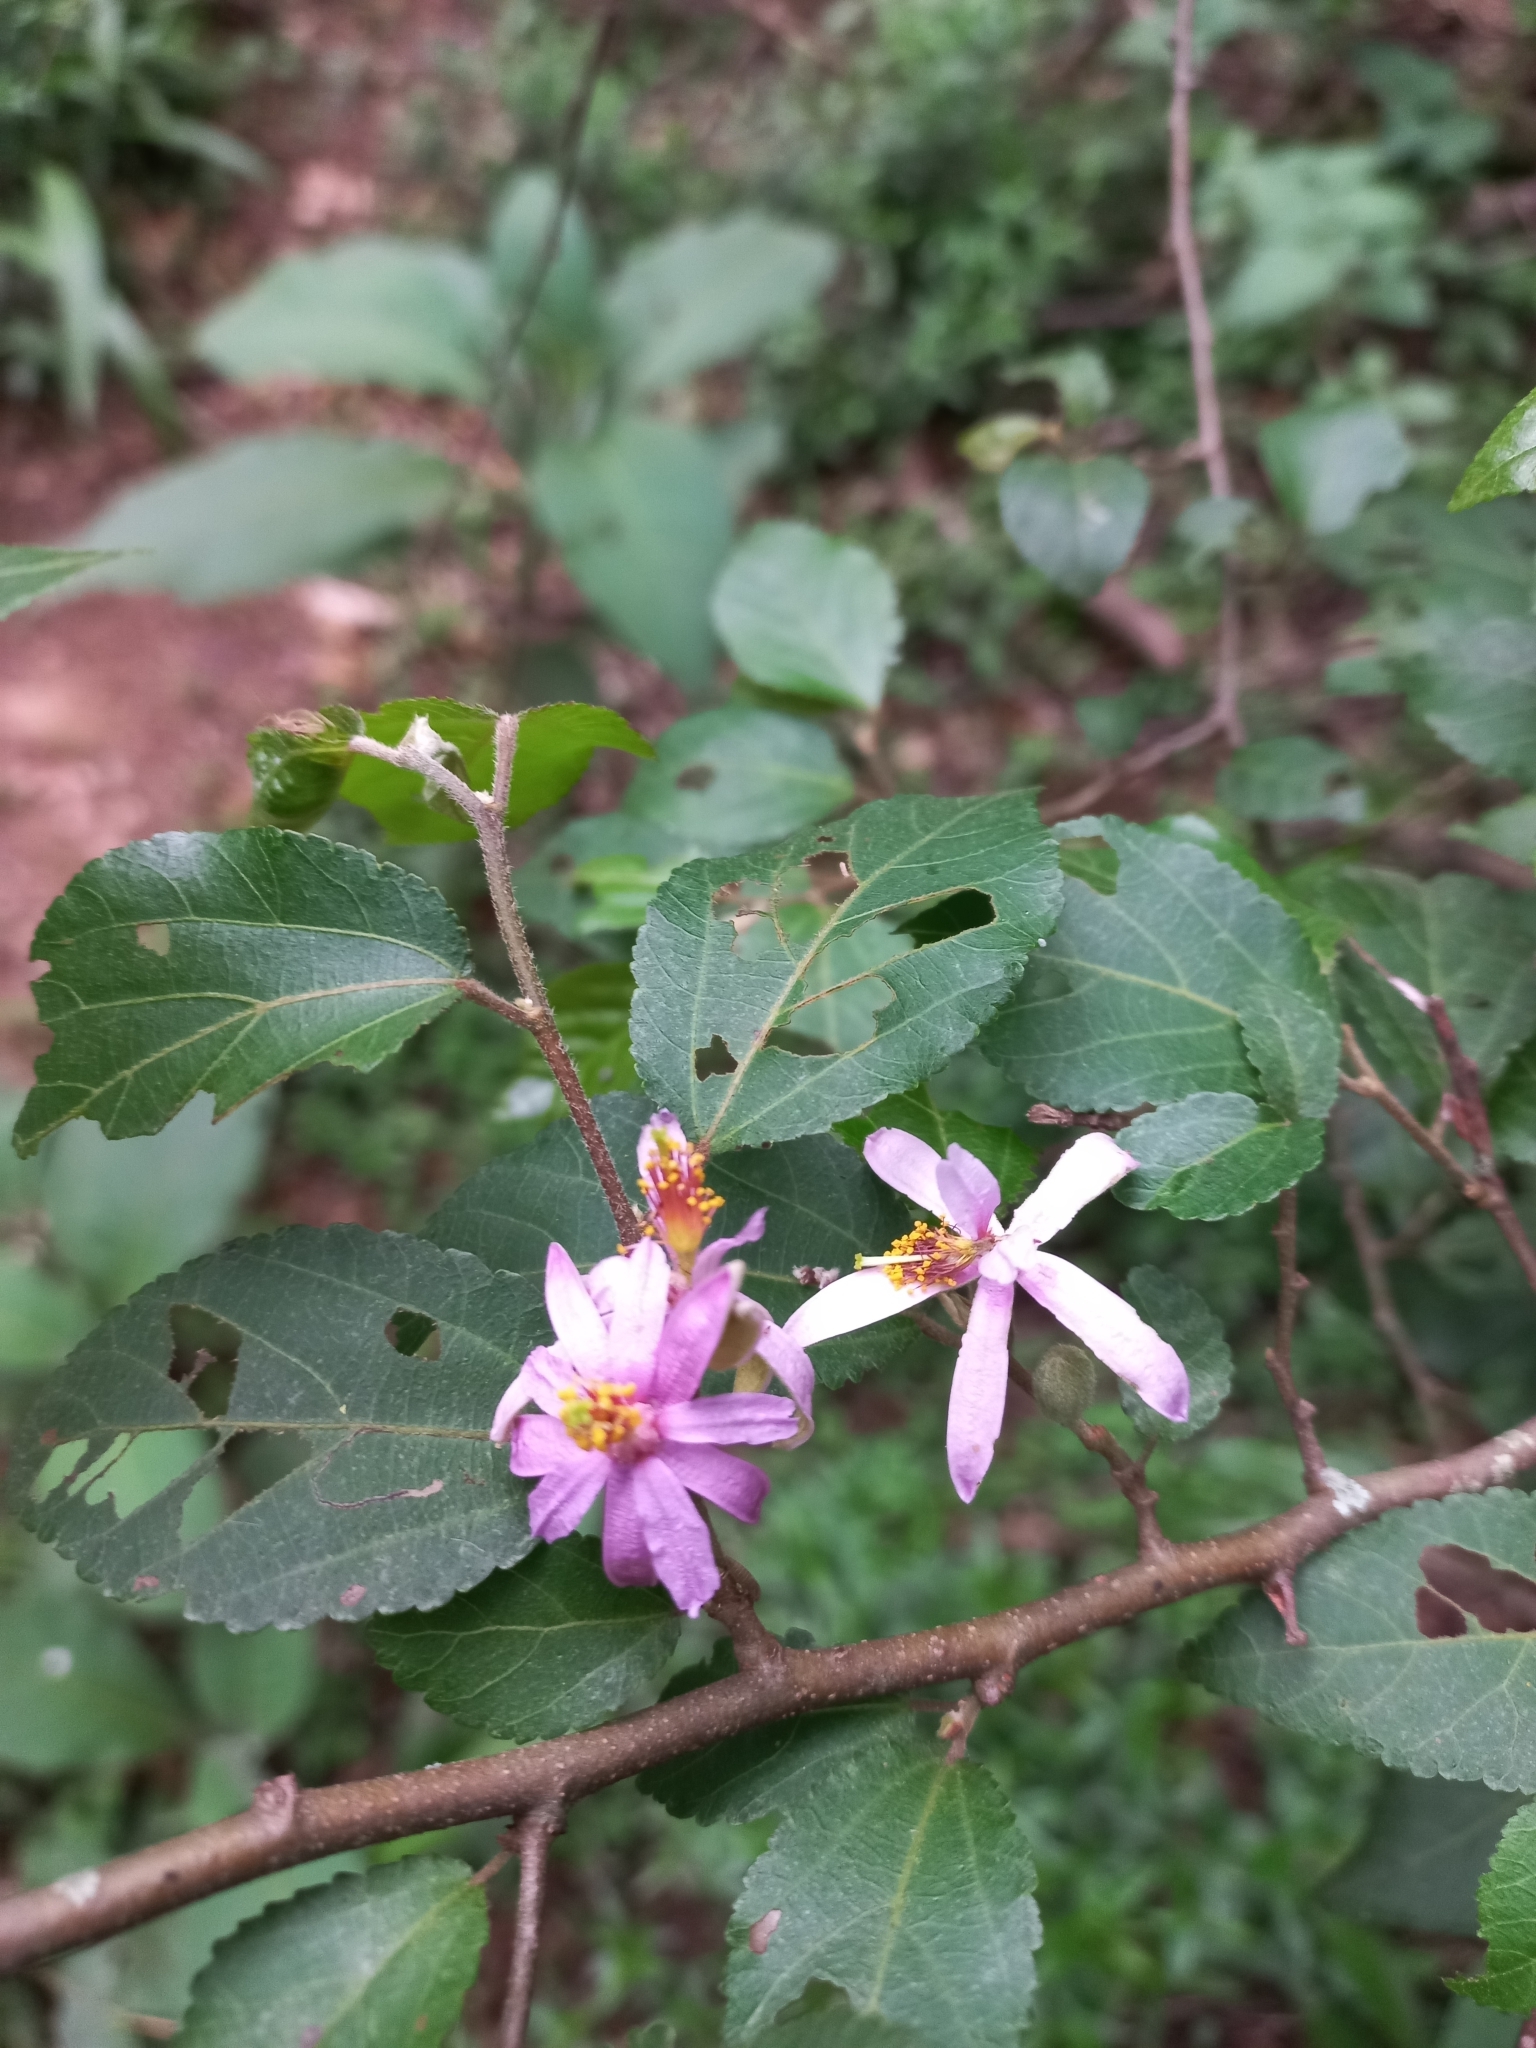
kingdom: Plantae
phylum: Tracheophyta
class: Magnoliopsida
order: Malvales
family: Malvaceae
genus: Grewia
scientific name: Grewia occidentalis
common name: Crossberry
